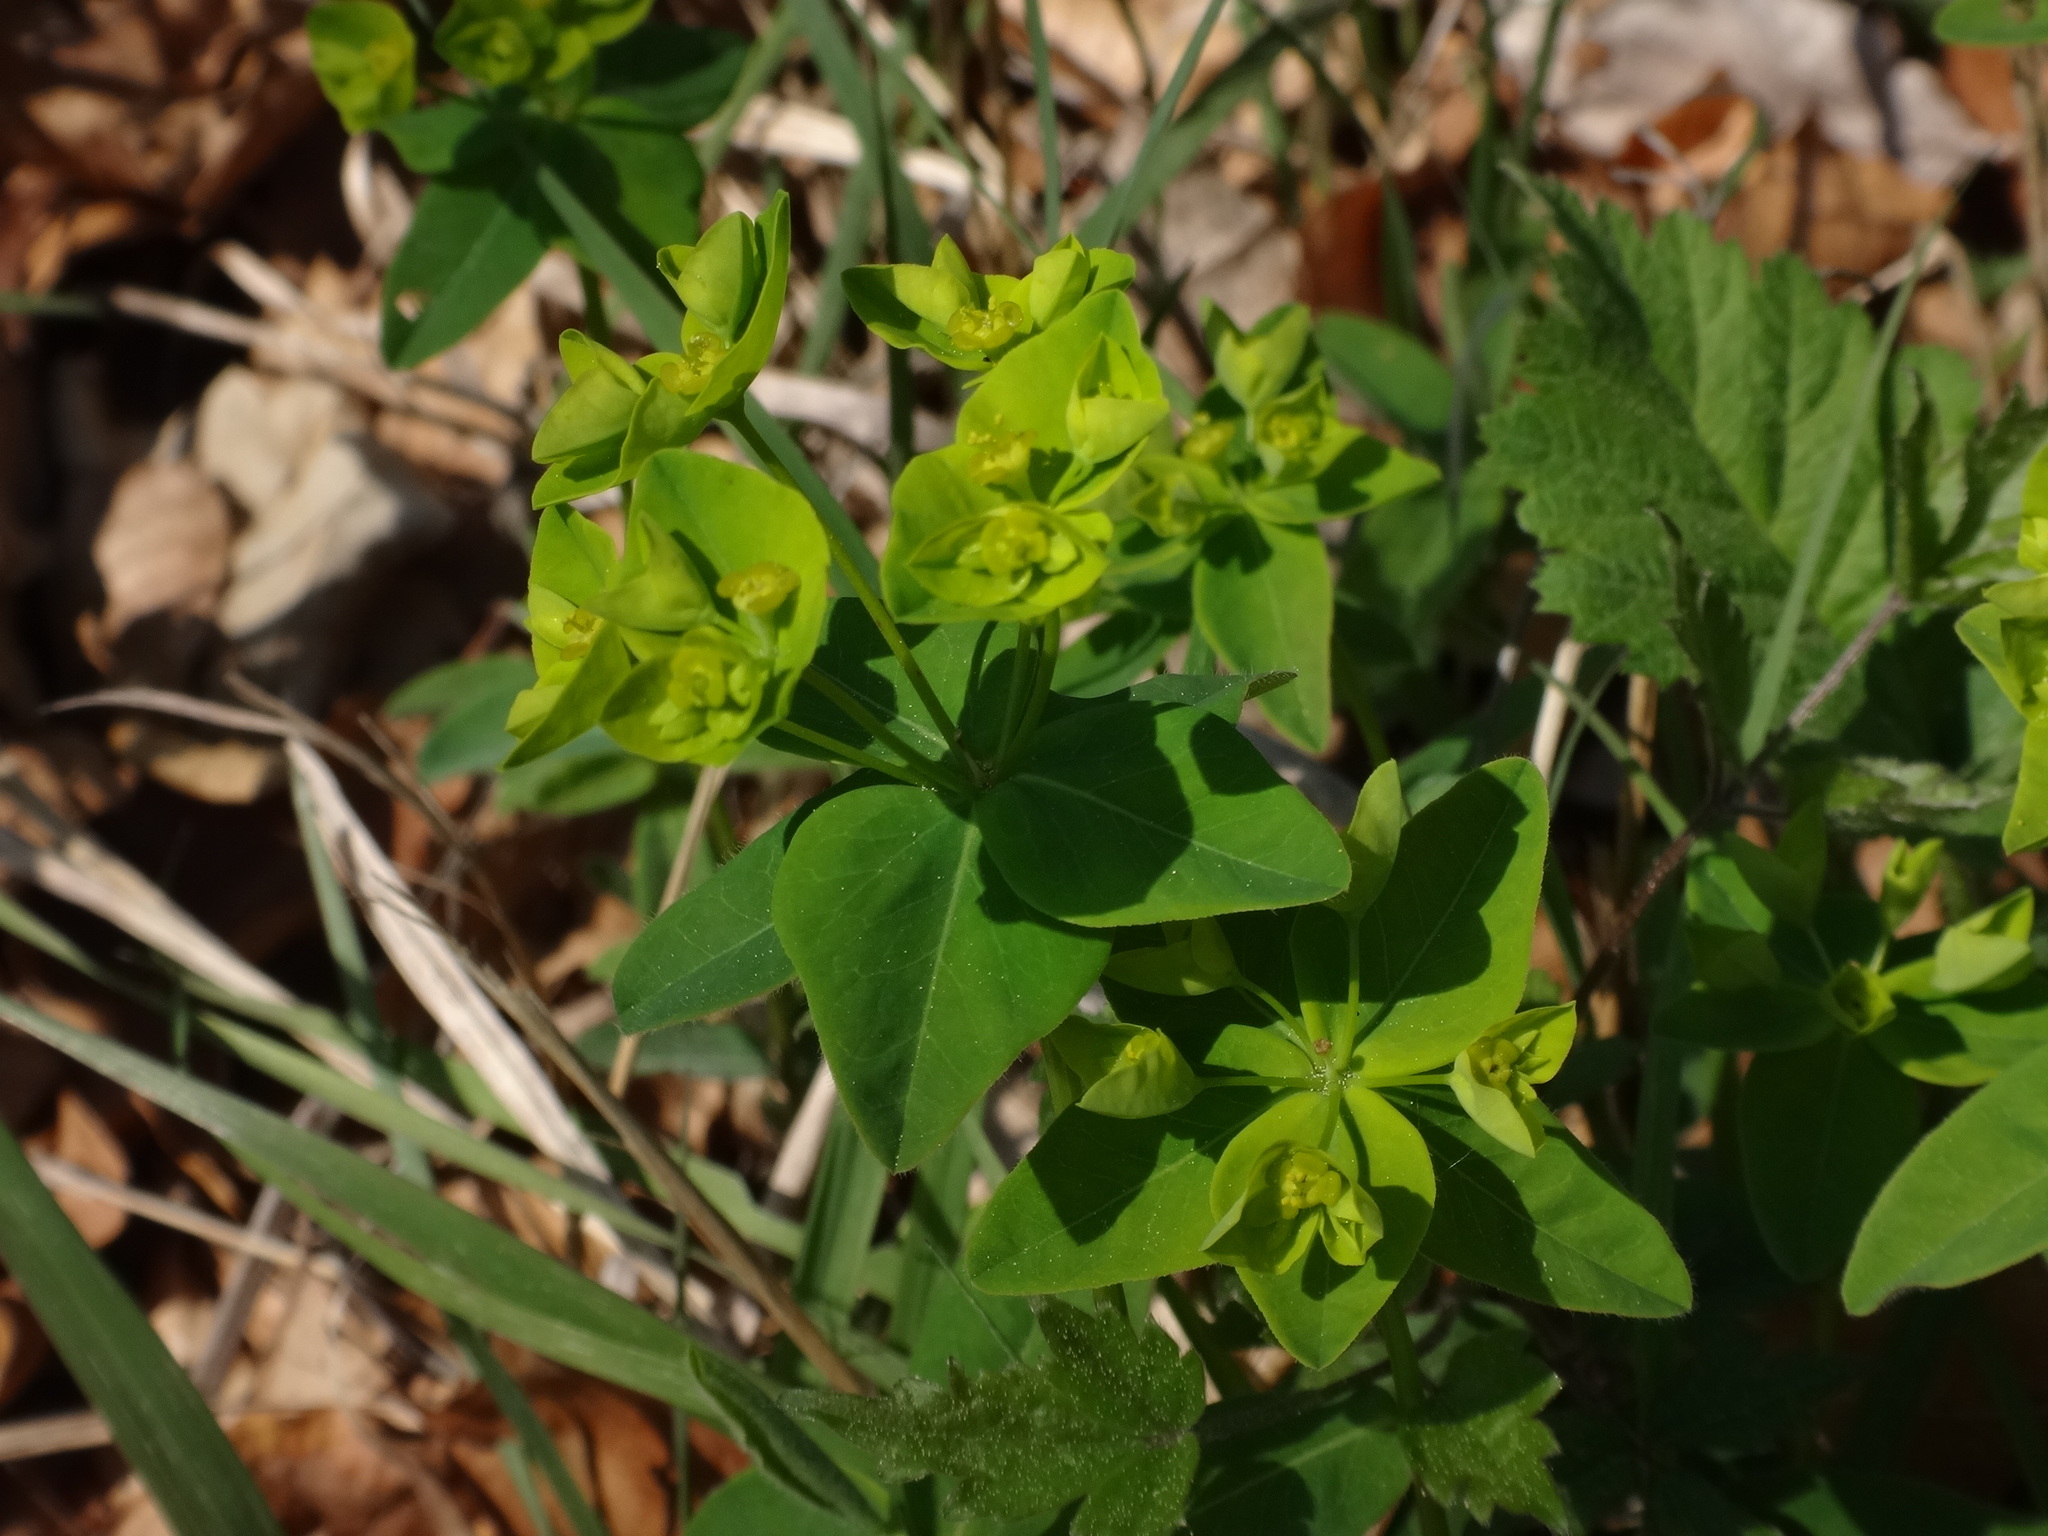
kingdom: Plantae
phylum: Tracheophyta
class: Magnoliopsida
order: Malpighiales
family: Euphorbiaceae
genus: Euphorbia
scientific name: Euphorbia angulata
